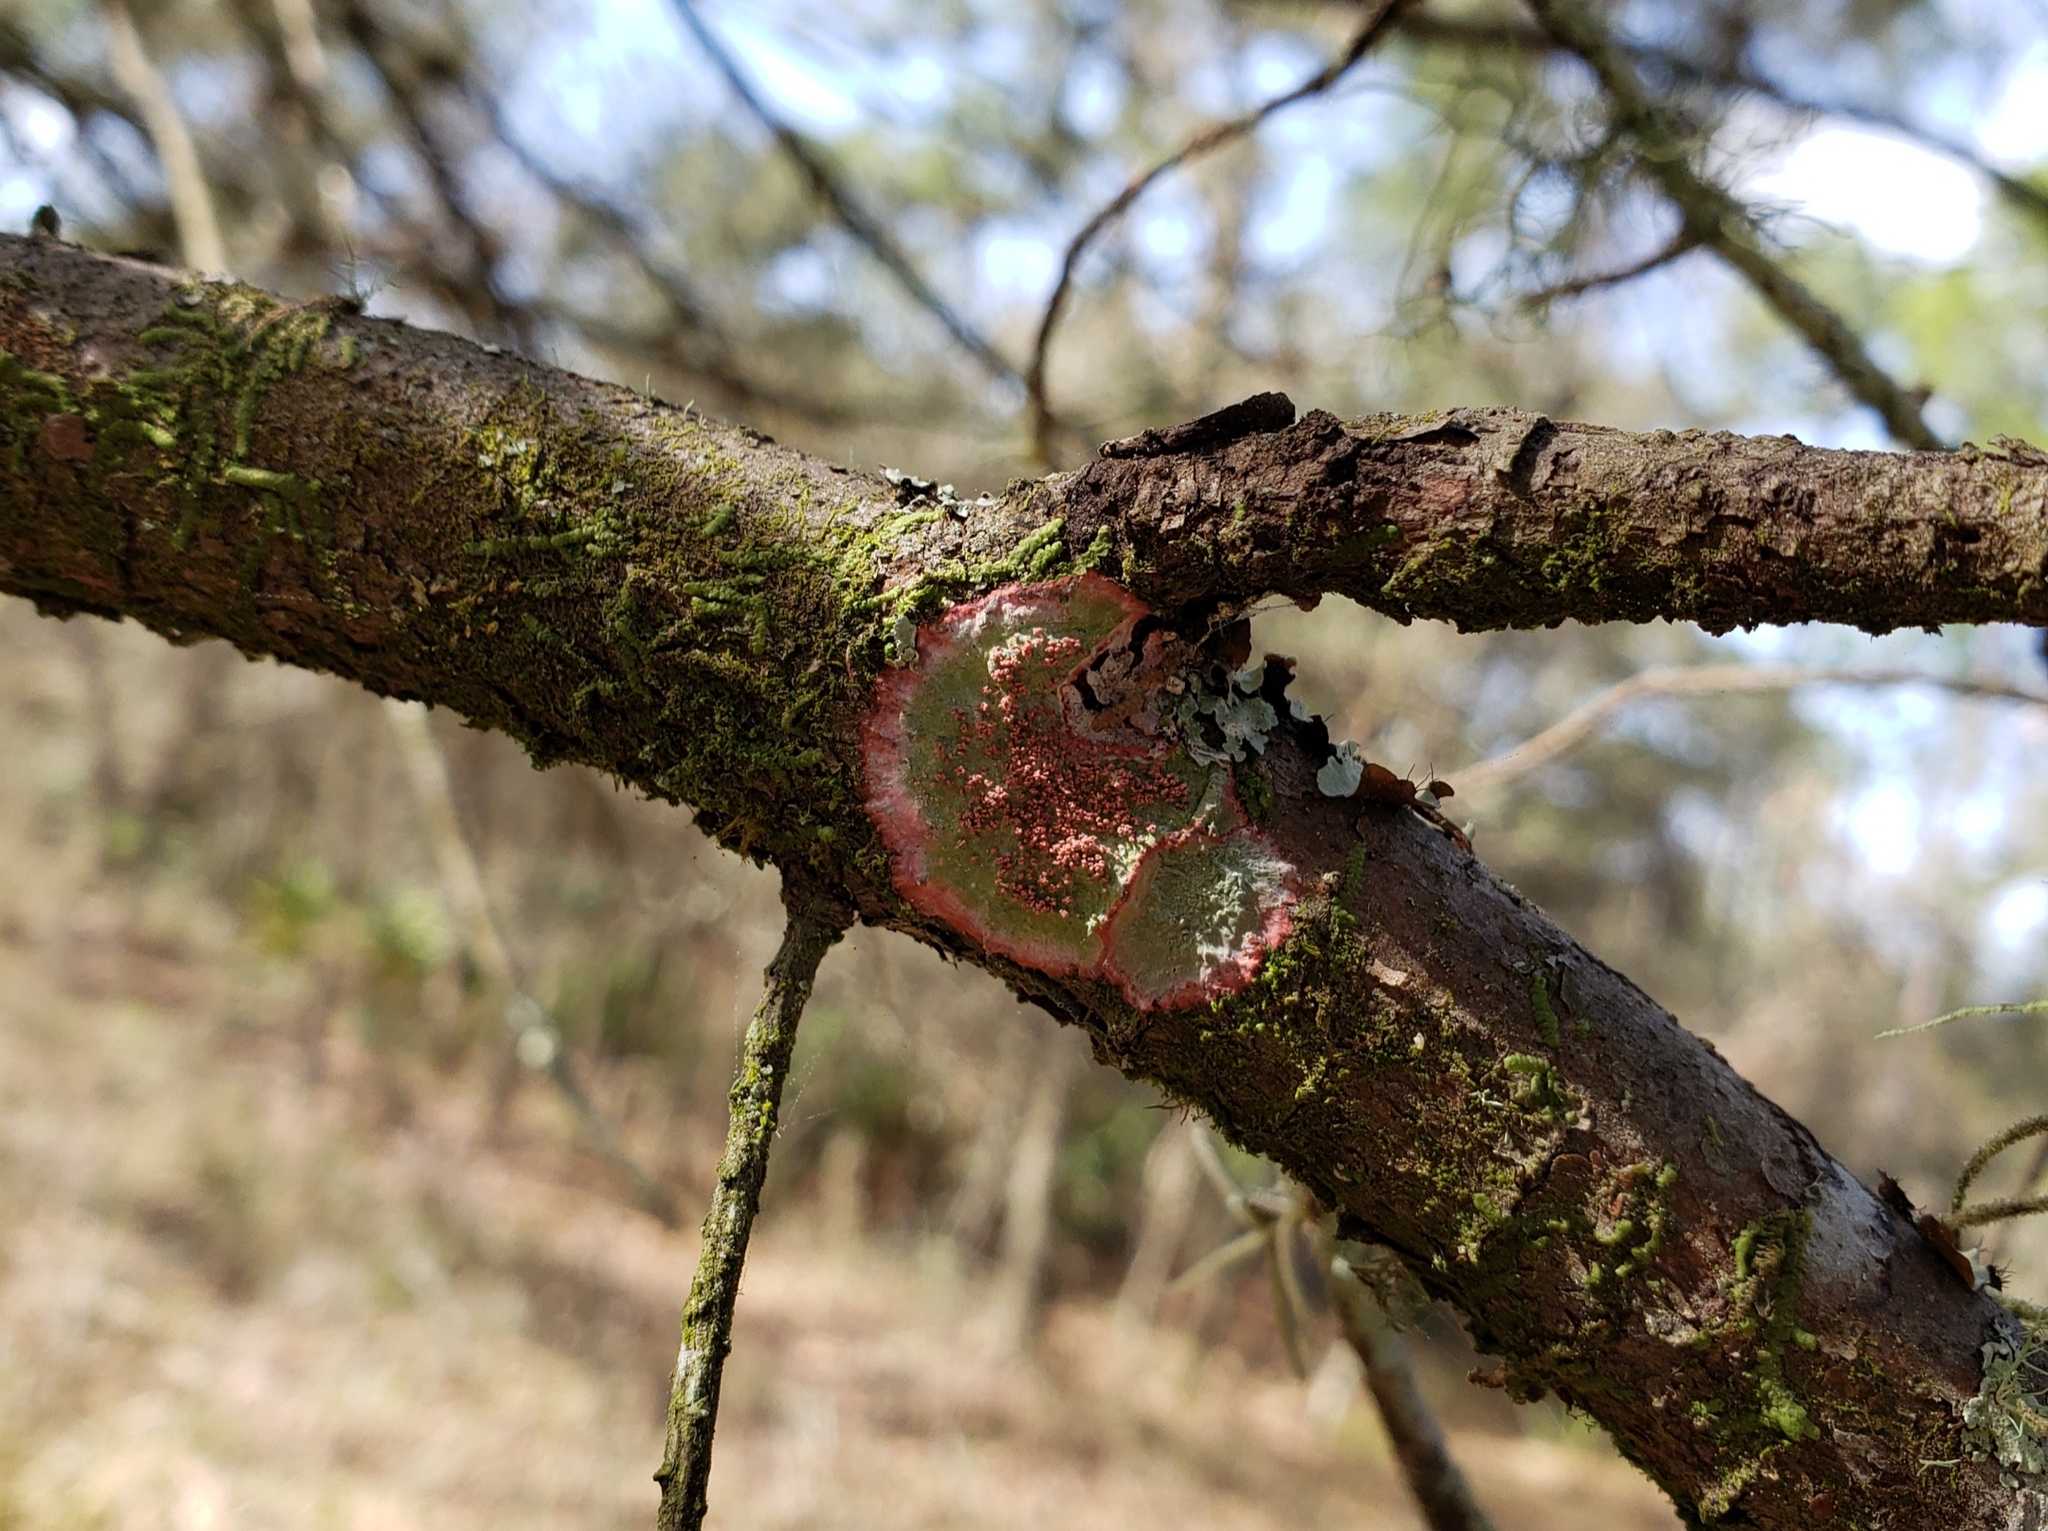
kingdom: Fungi
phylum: Ascomycota
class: Arthoniomycetes
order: Arthoniales
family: Arthoniaceae
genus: Herpothallon
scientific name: Herpothallon rubrocinctum
